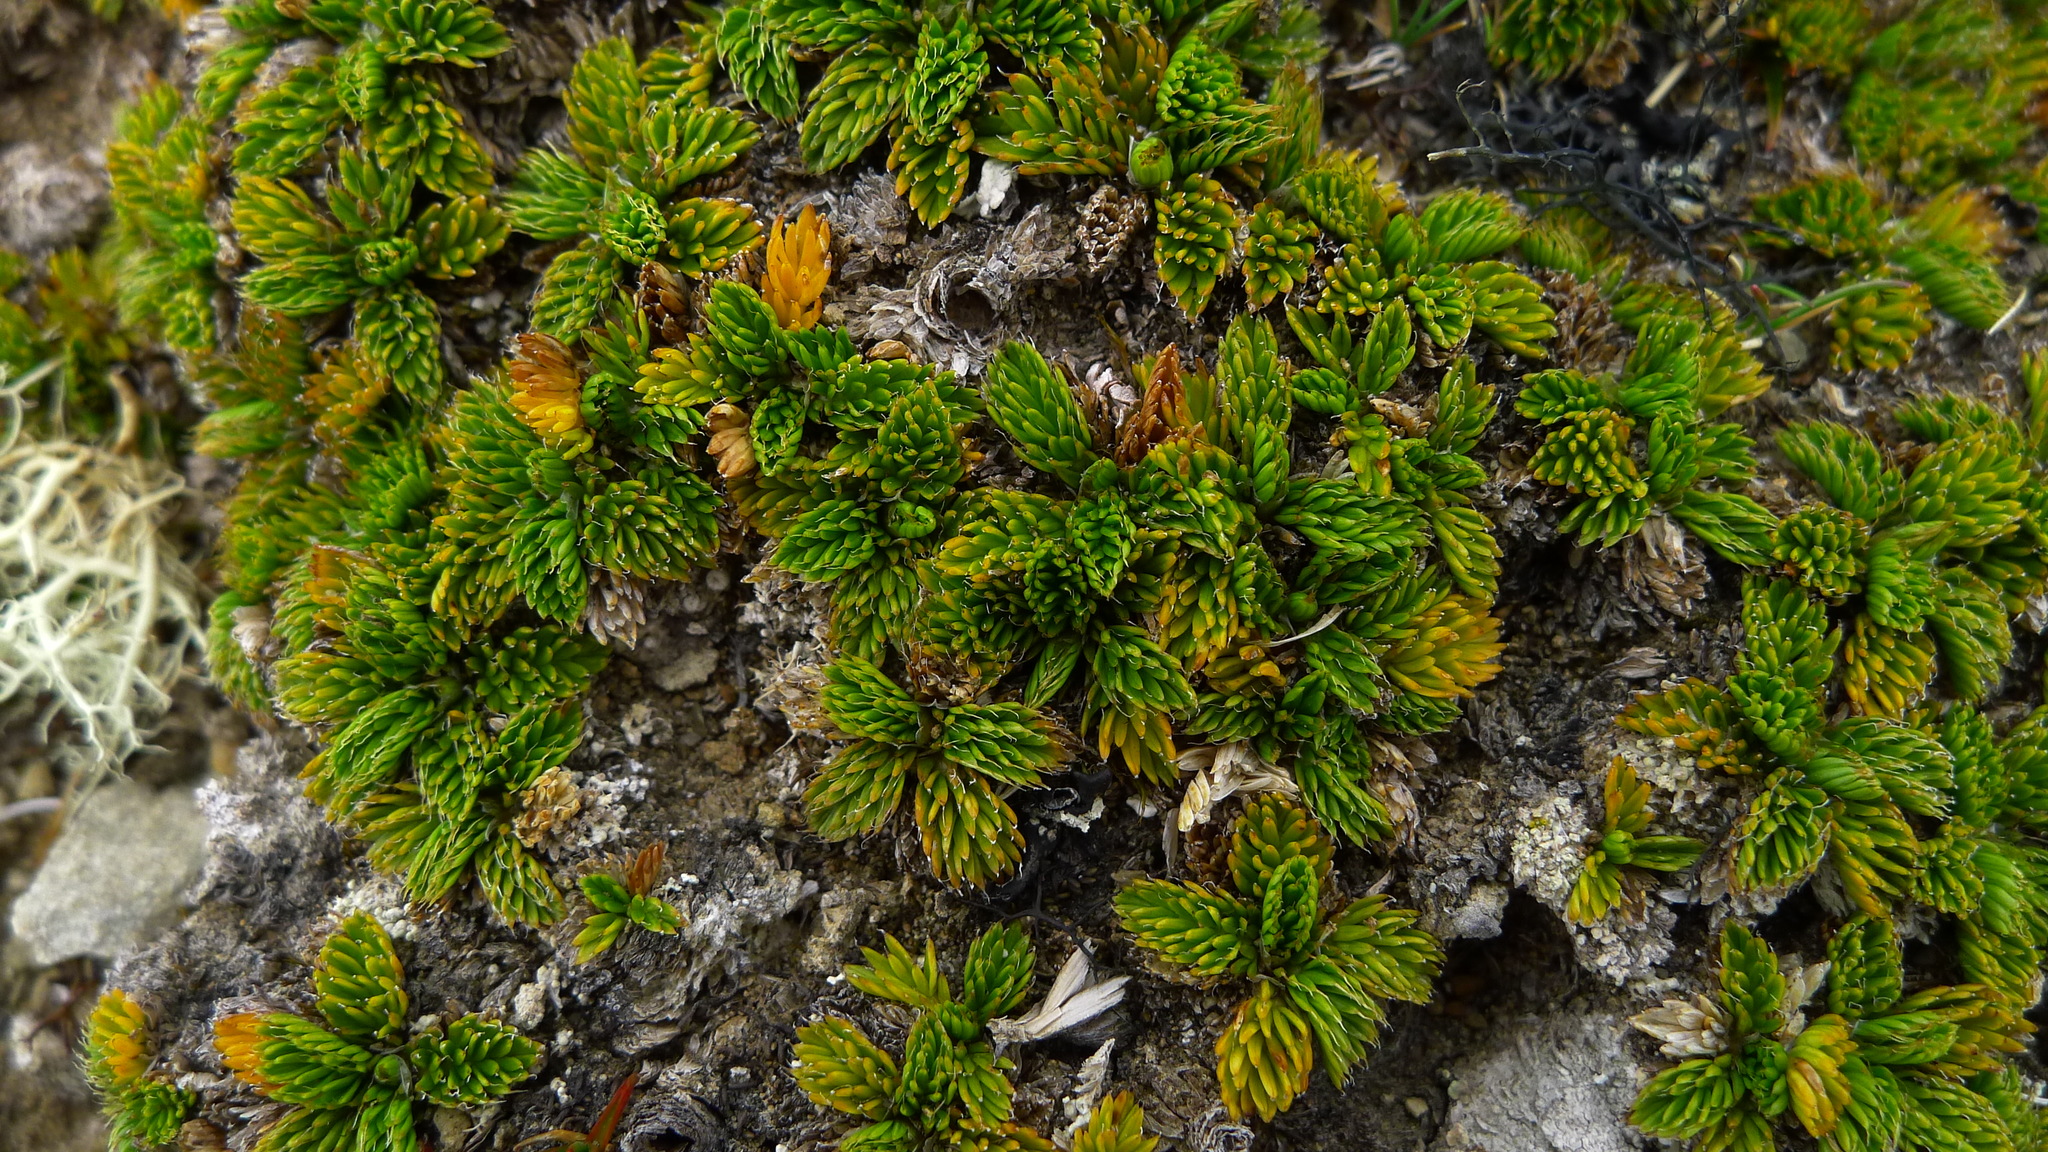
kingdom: Plantae
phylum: Tracheophyta
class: Magnoliopsida
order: Apiales
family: Apiaceae
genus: Anisotome
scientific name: Anisotome imbricata
